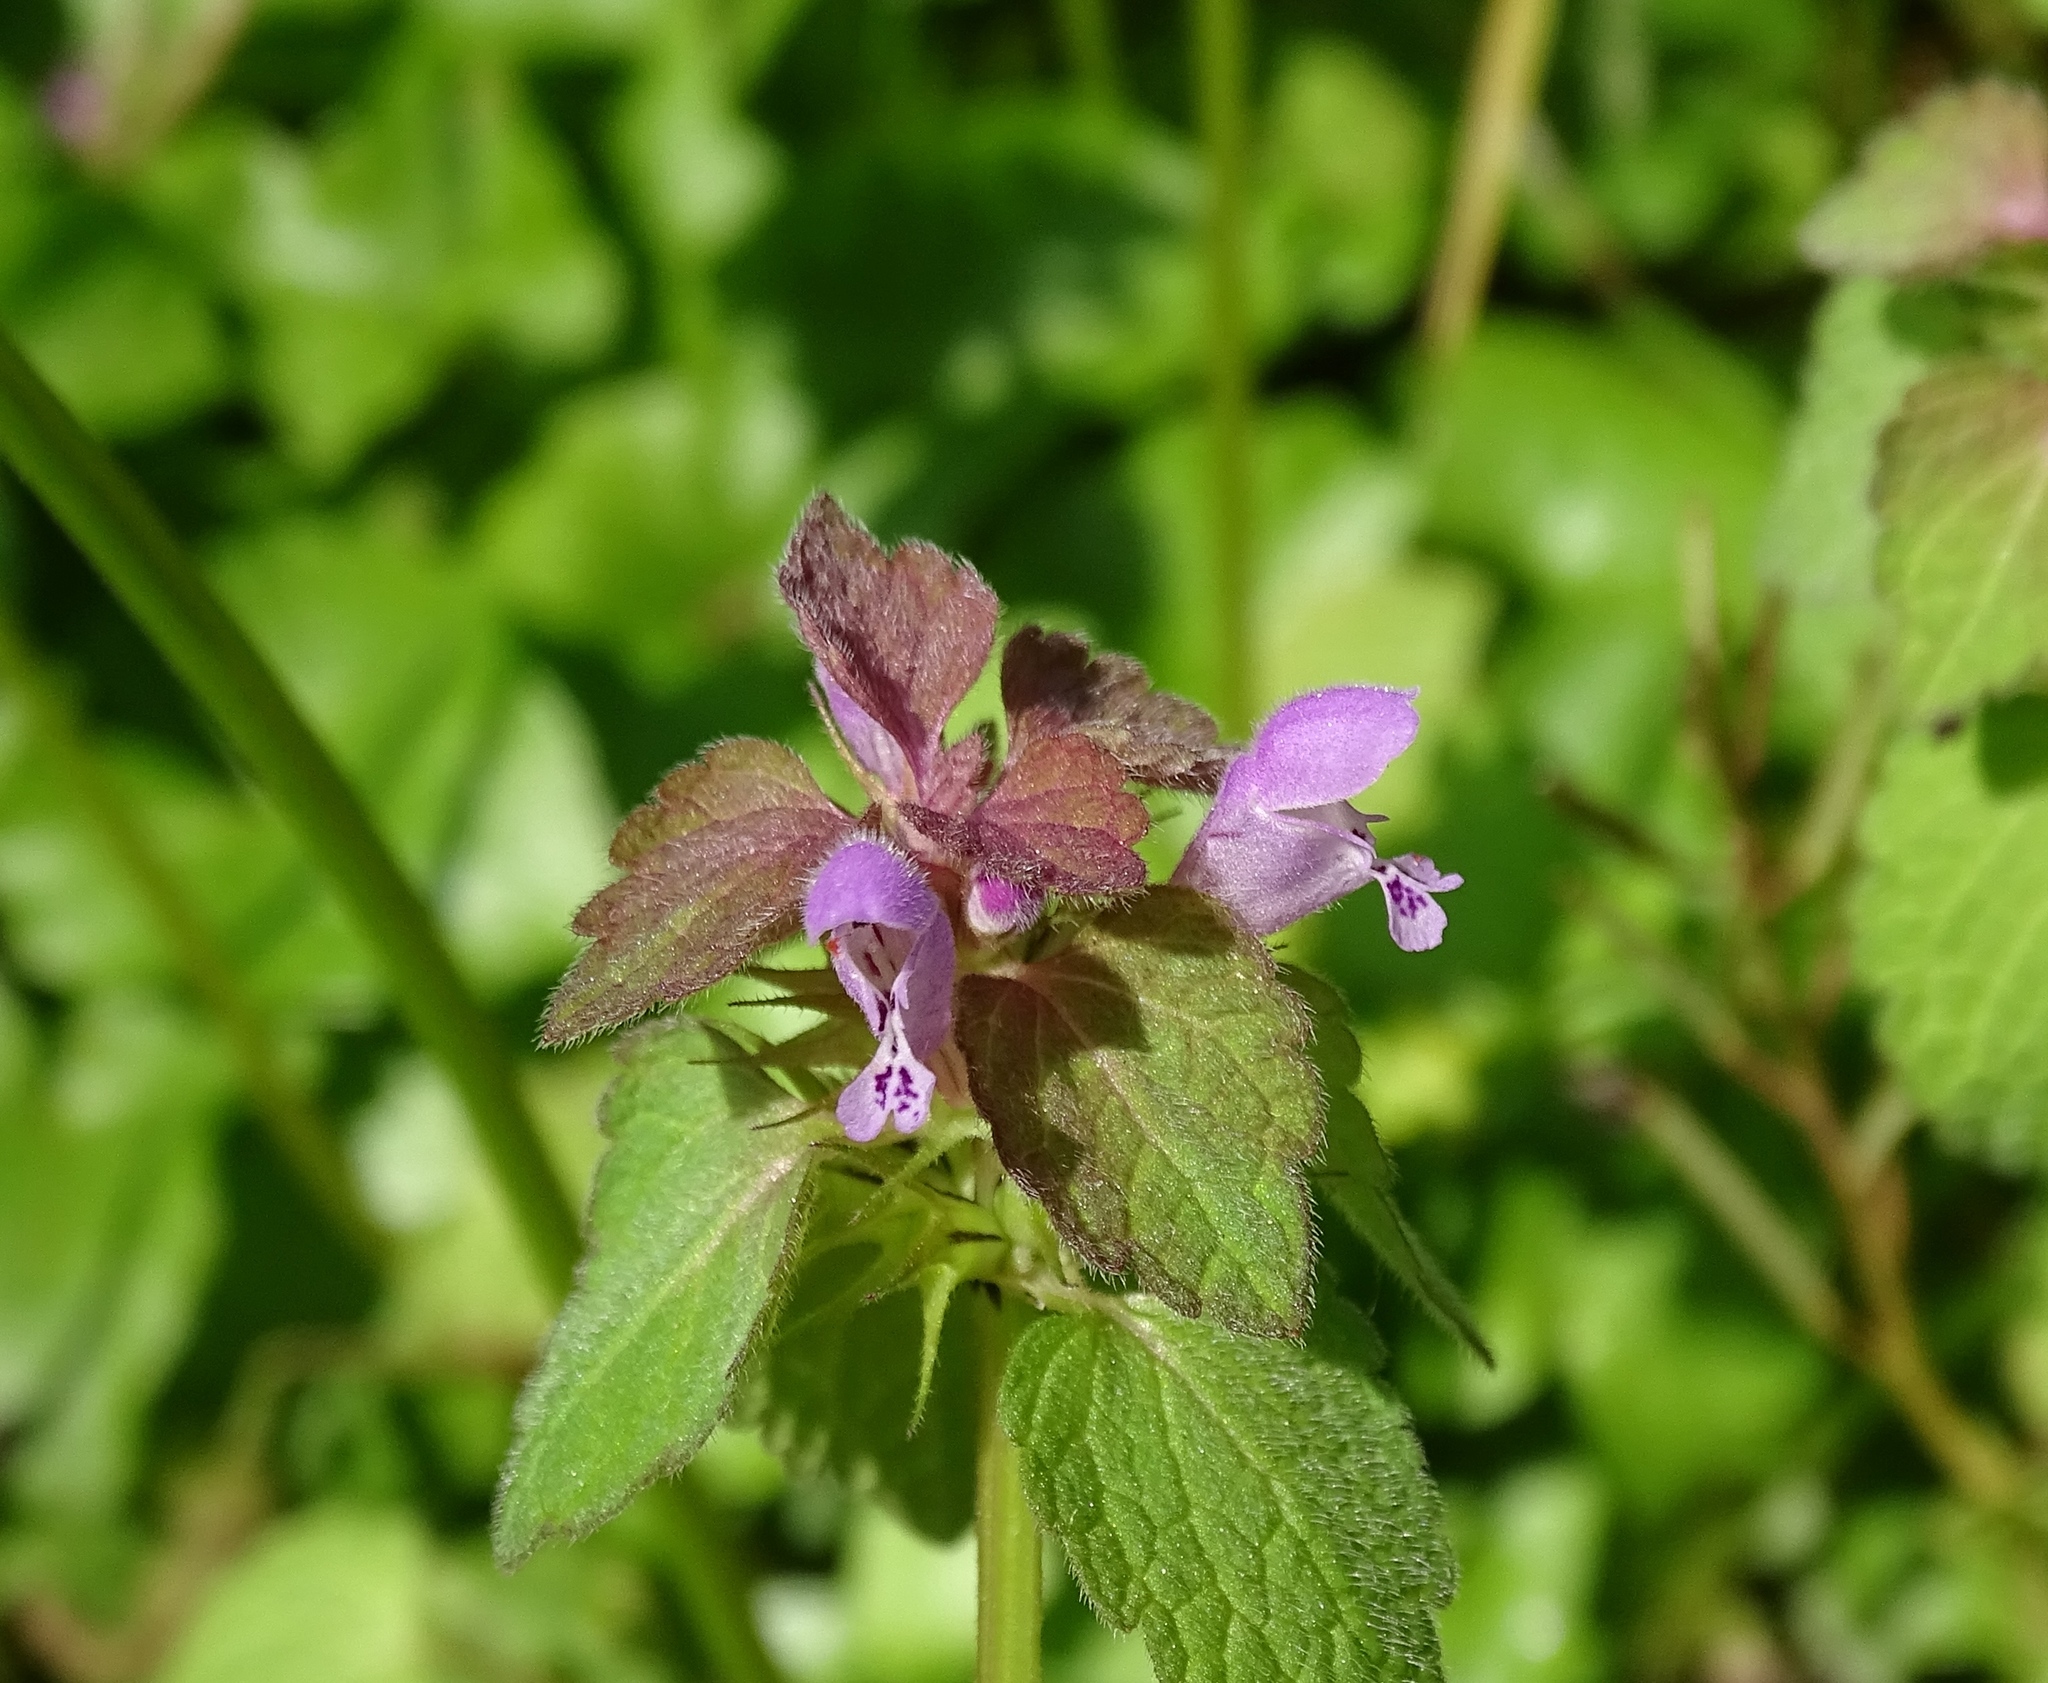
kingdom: Plantae
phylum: Tracheophyta
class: Magnoliopsida
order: Lamiales
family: Lamiaceae
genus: Lamium
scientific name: Lamium purpureum
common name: Red dead-nettle
